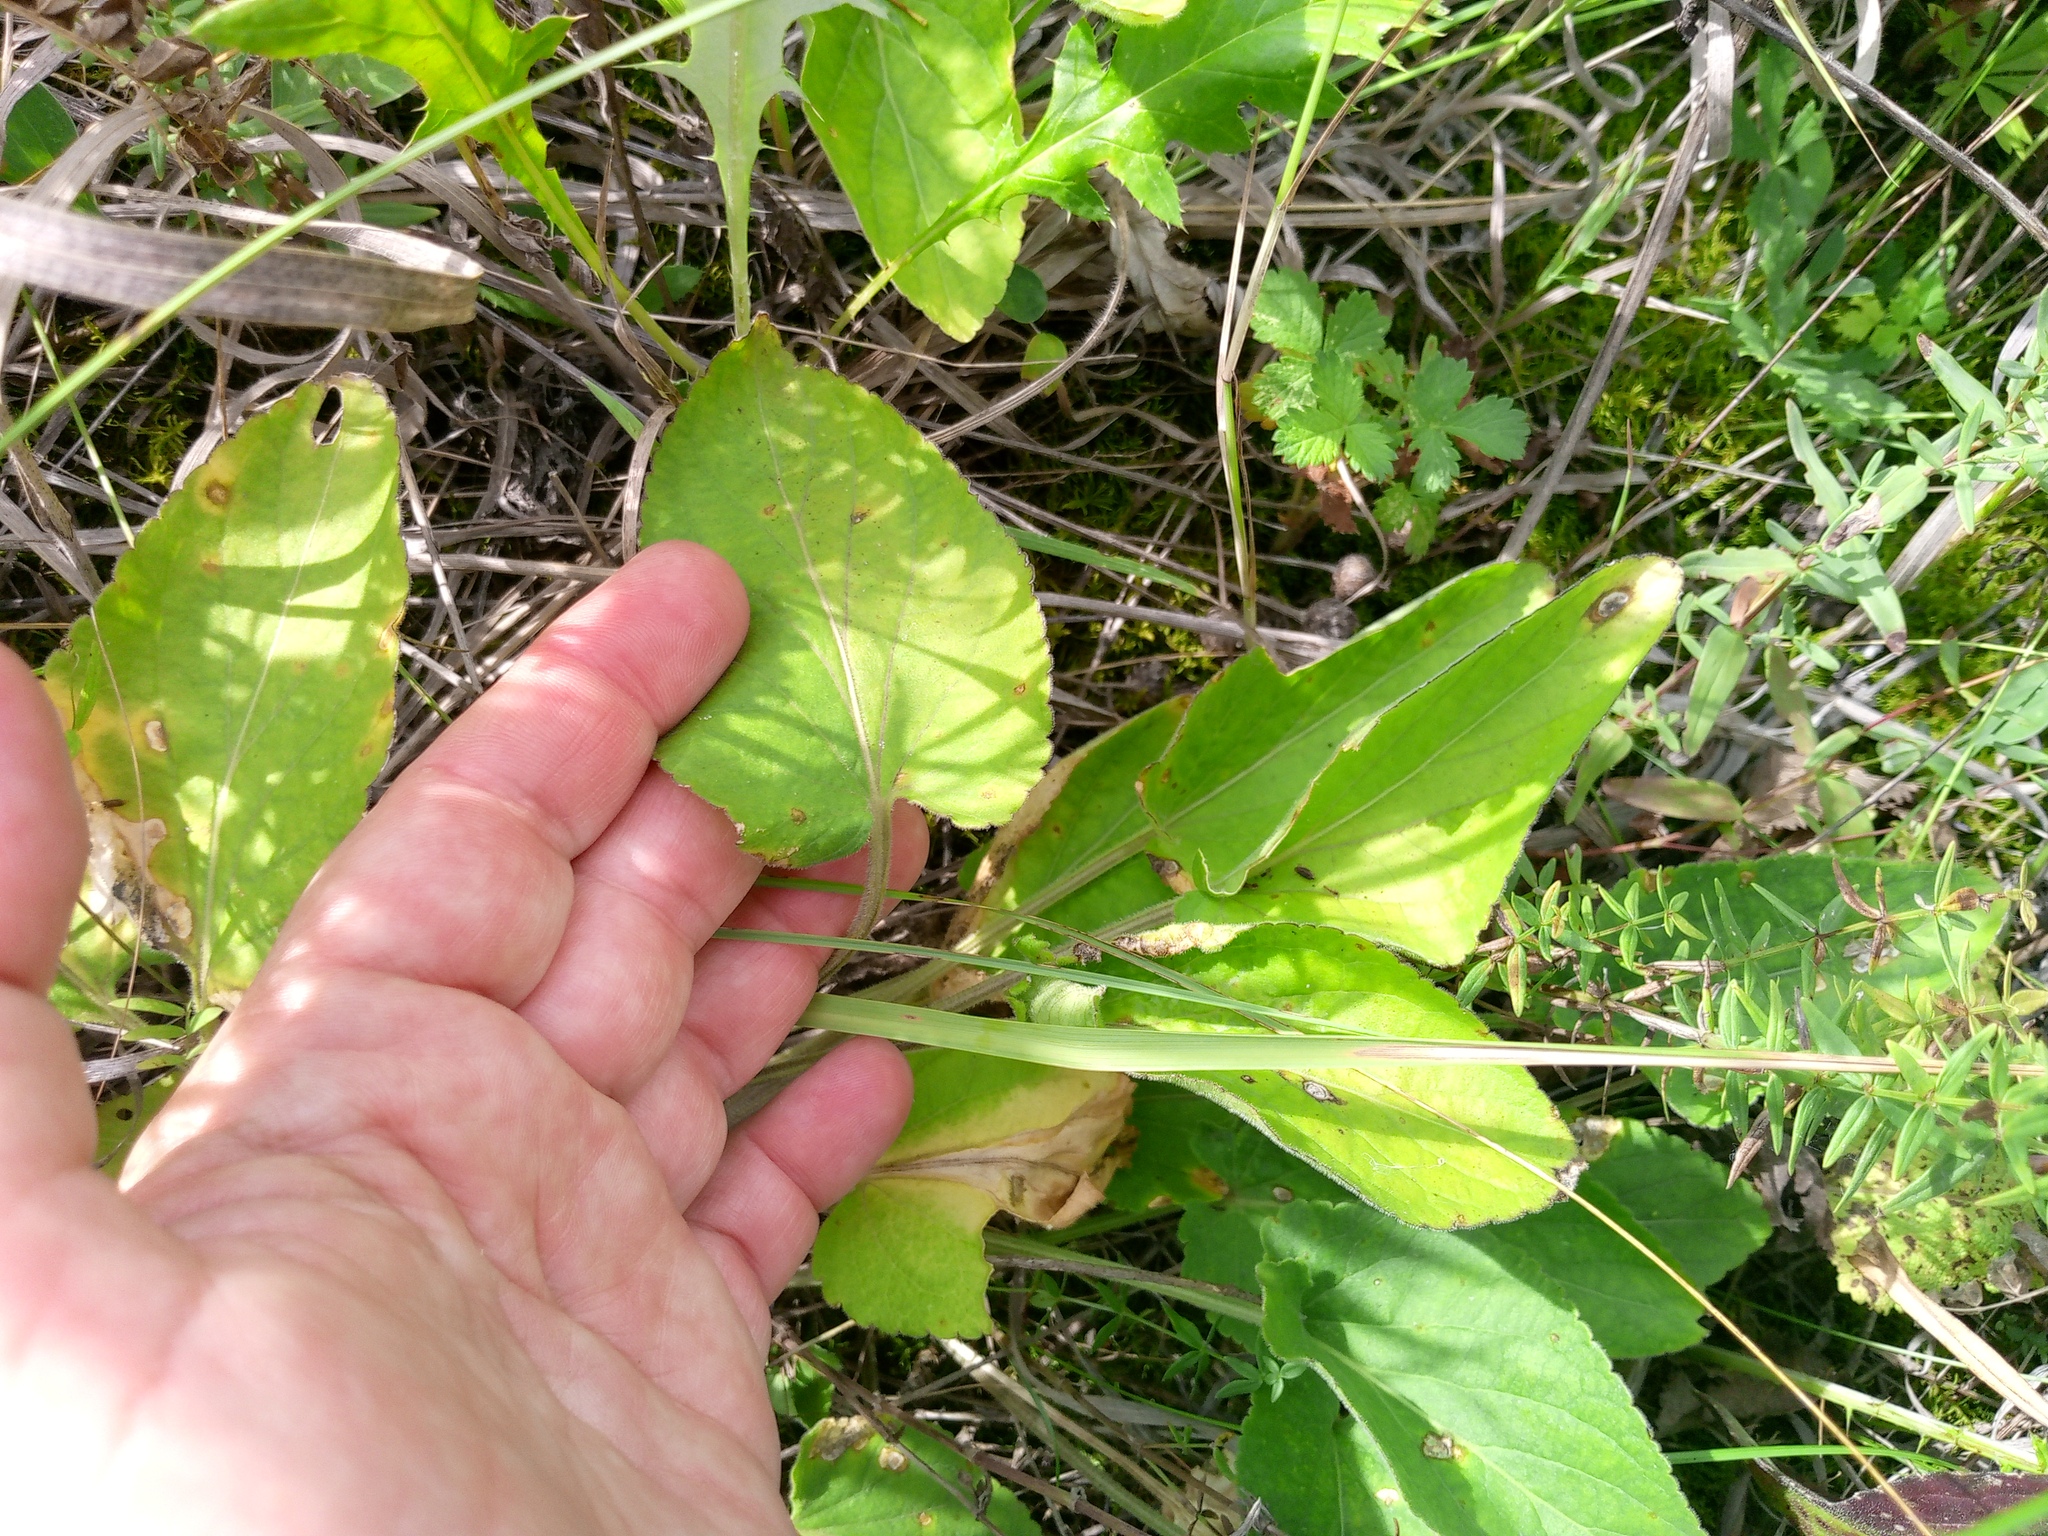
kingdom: Plantae
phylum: Tracheophyta
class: Magnoliopsida
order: Malpighiales
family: Violaceae
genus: Viola
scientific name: Viola hirta
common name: Hairy violet
